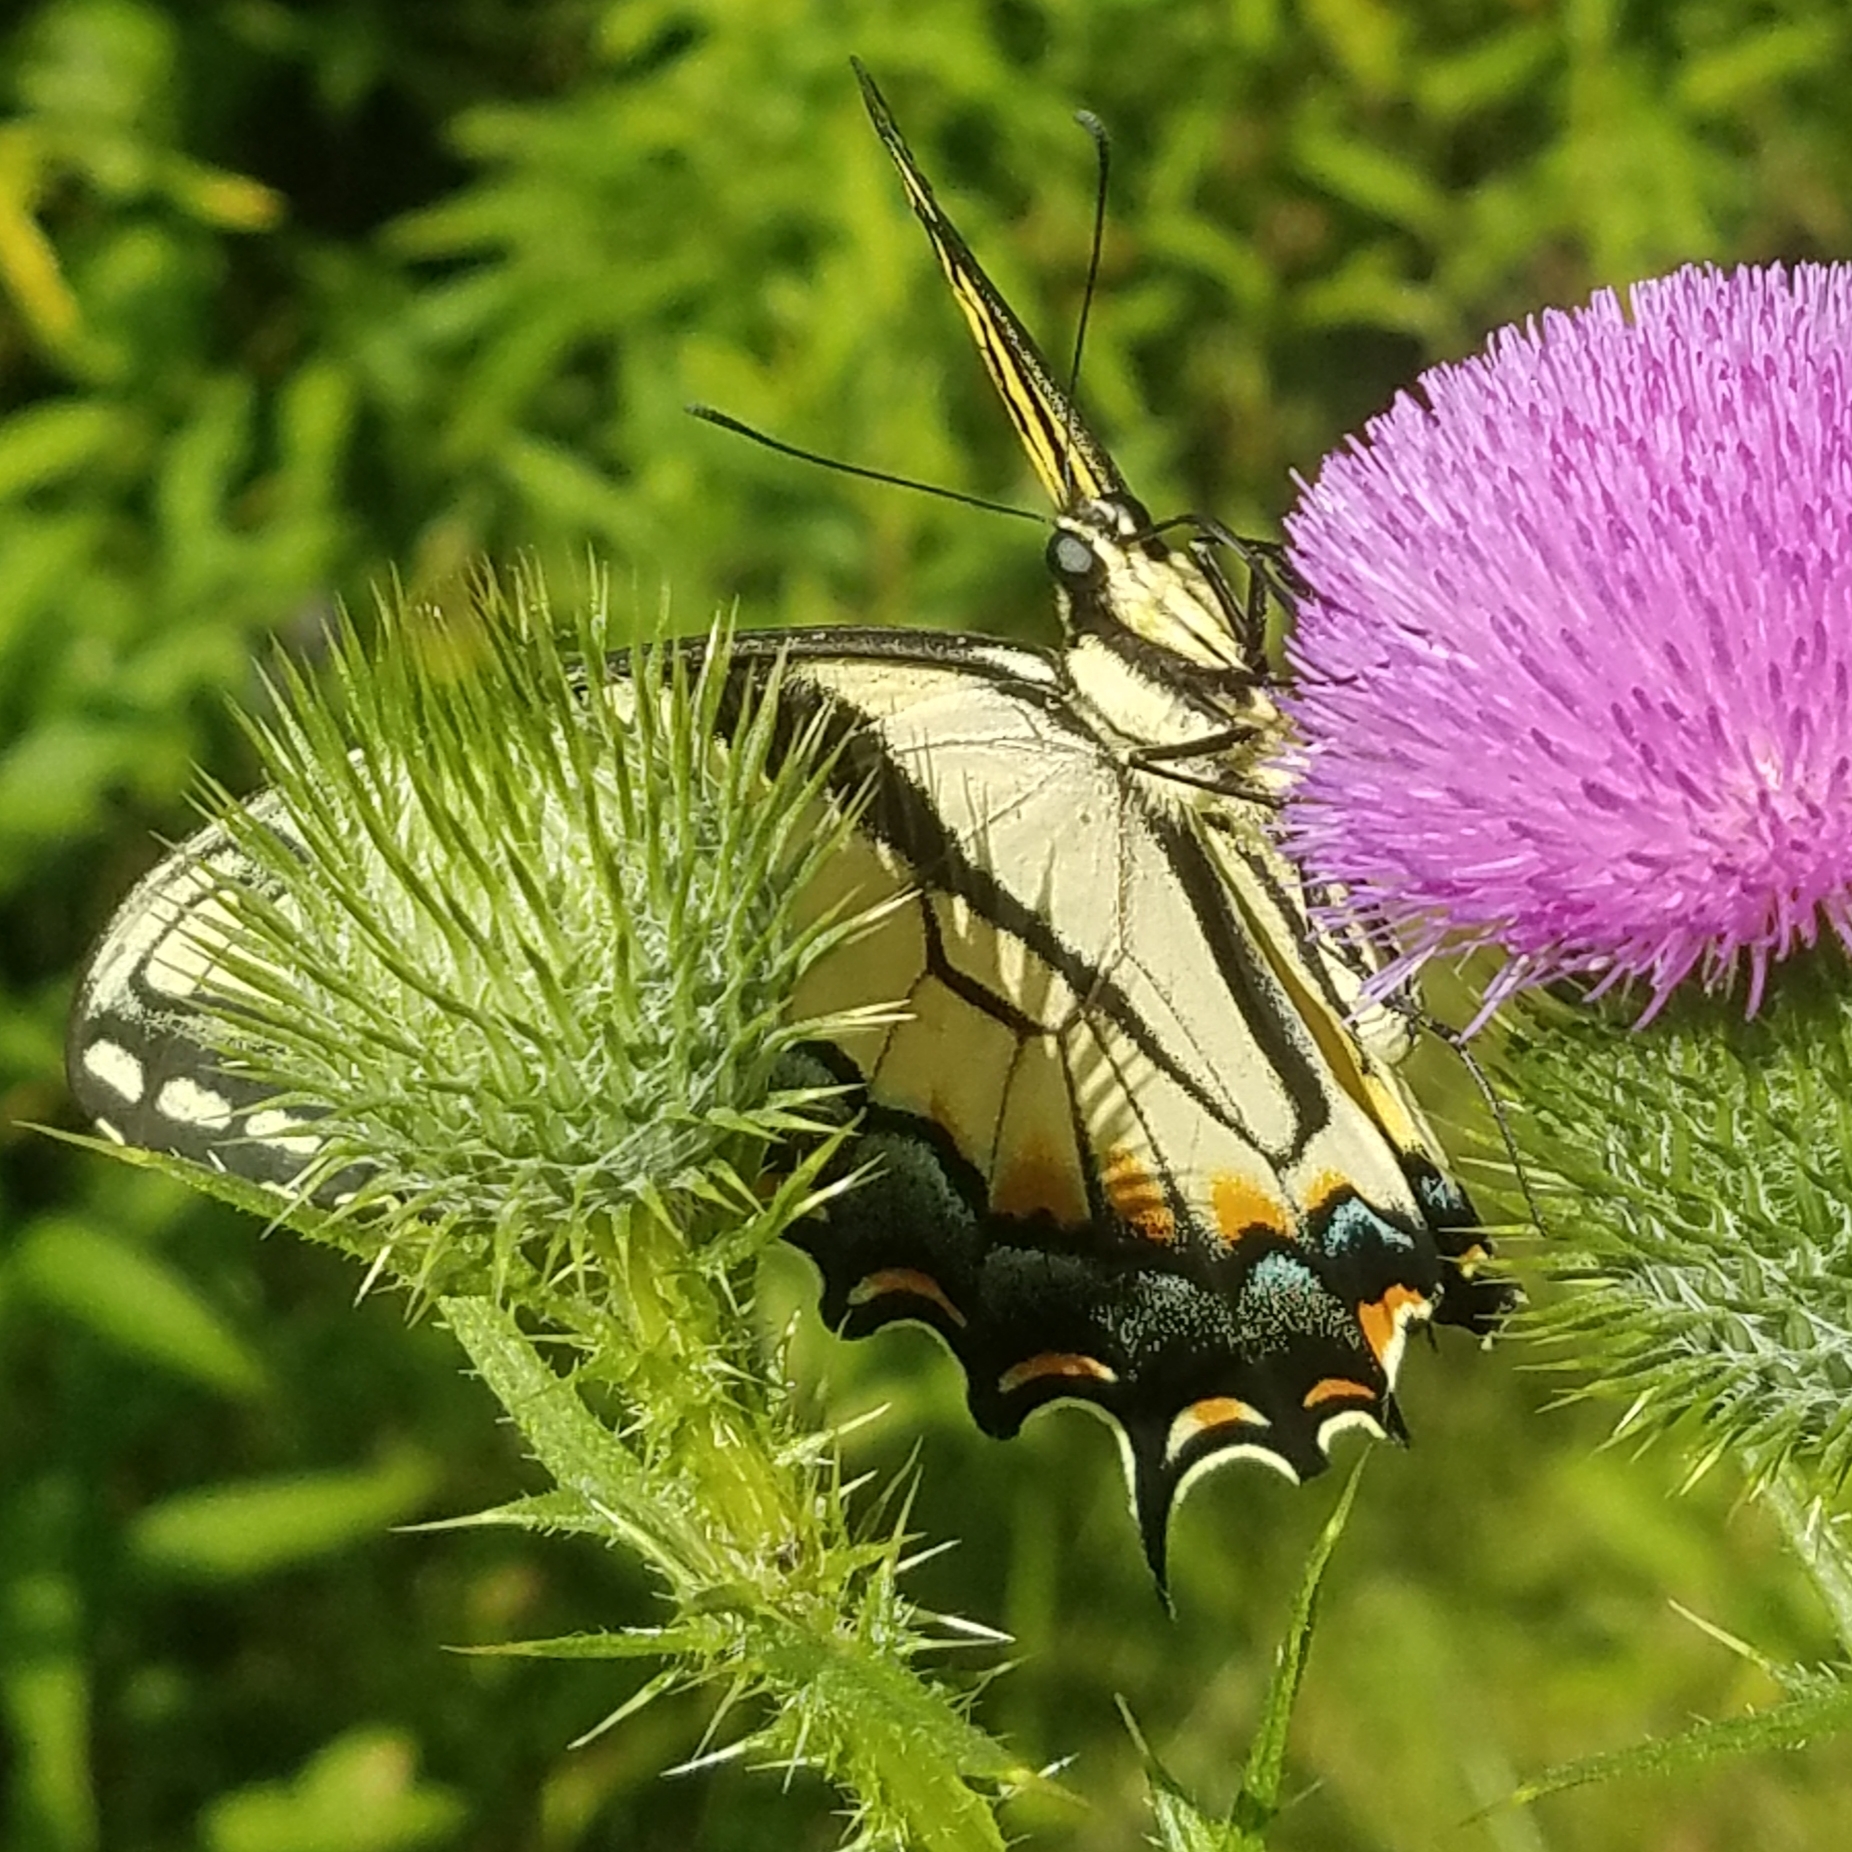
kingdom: Animalia
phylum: Arthropoda
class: Insecta
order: Lepidoptera
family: Papilionidae
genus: Papilio
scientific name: Papilio glaucus
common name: Tiger swallowtail
